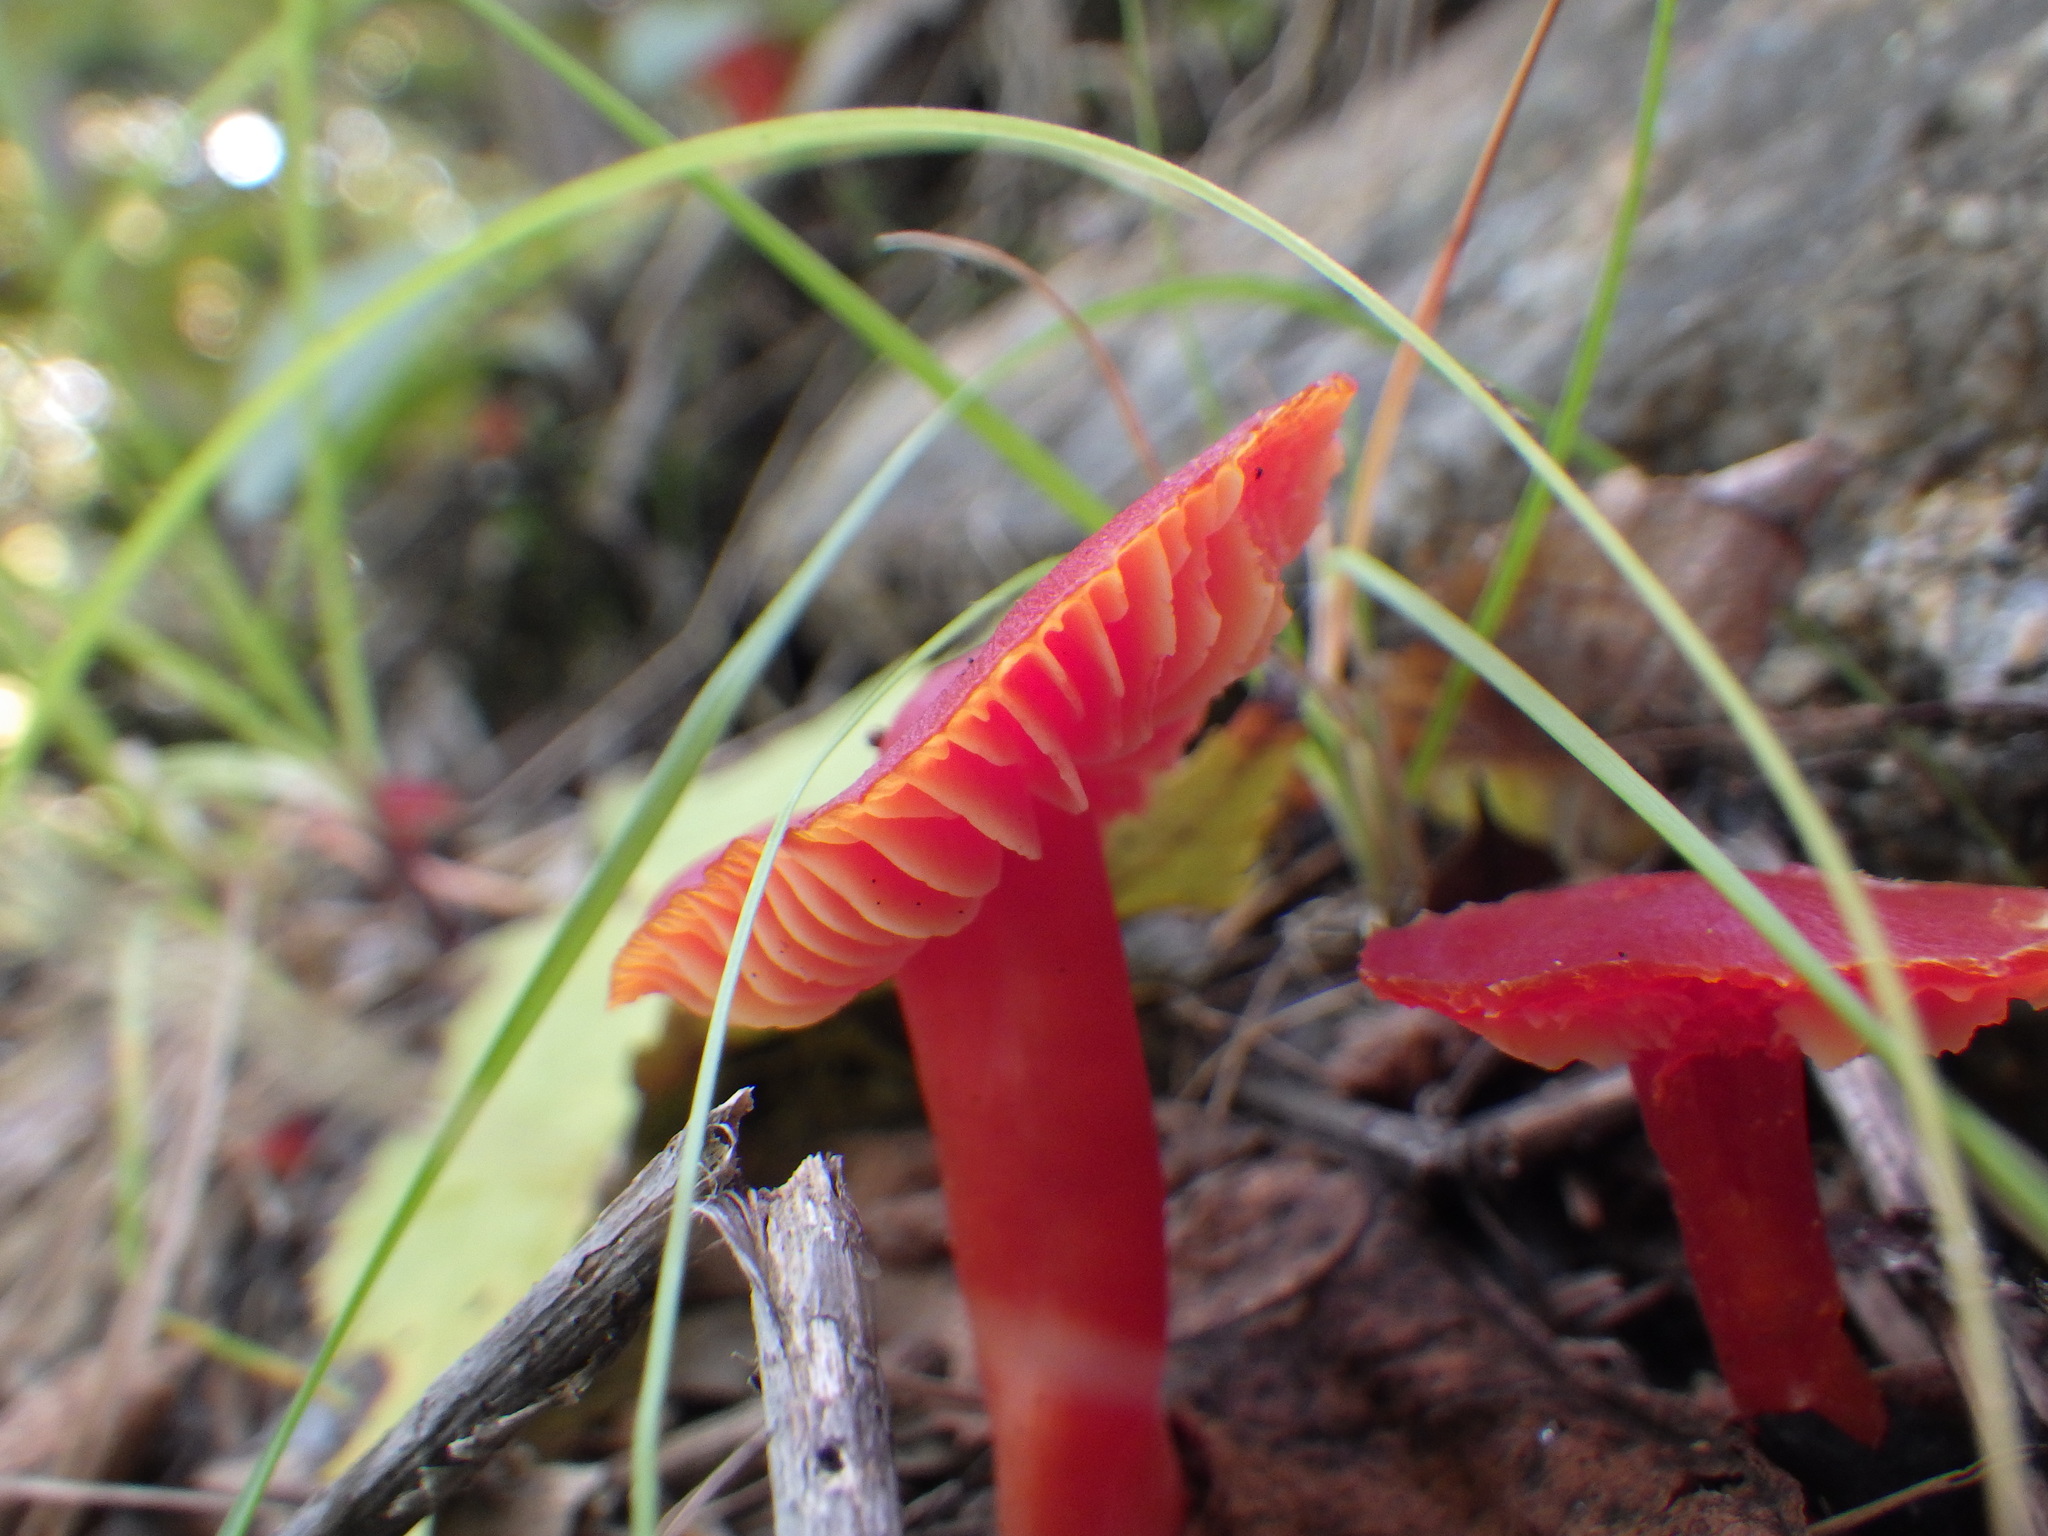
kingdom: Fungi
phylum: Basidiomycota
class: Agaricomycetes
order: Agaricales
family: Hygrophoraceae
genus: Hygrocybe
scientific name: Hygrocybe coccinea
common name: Scarlet hood
